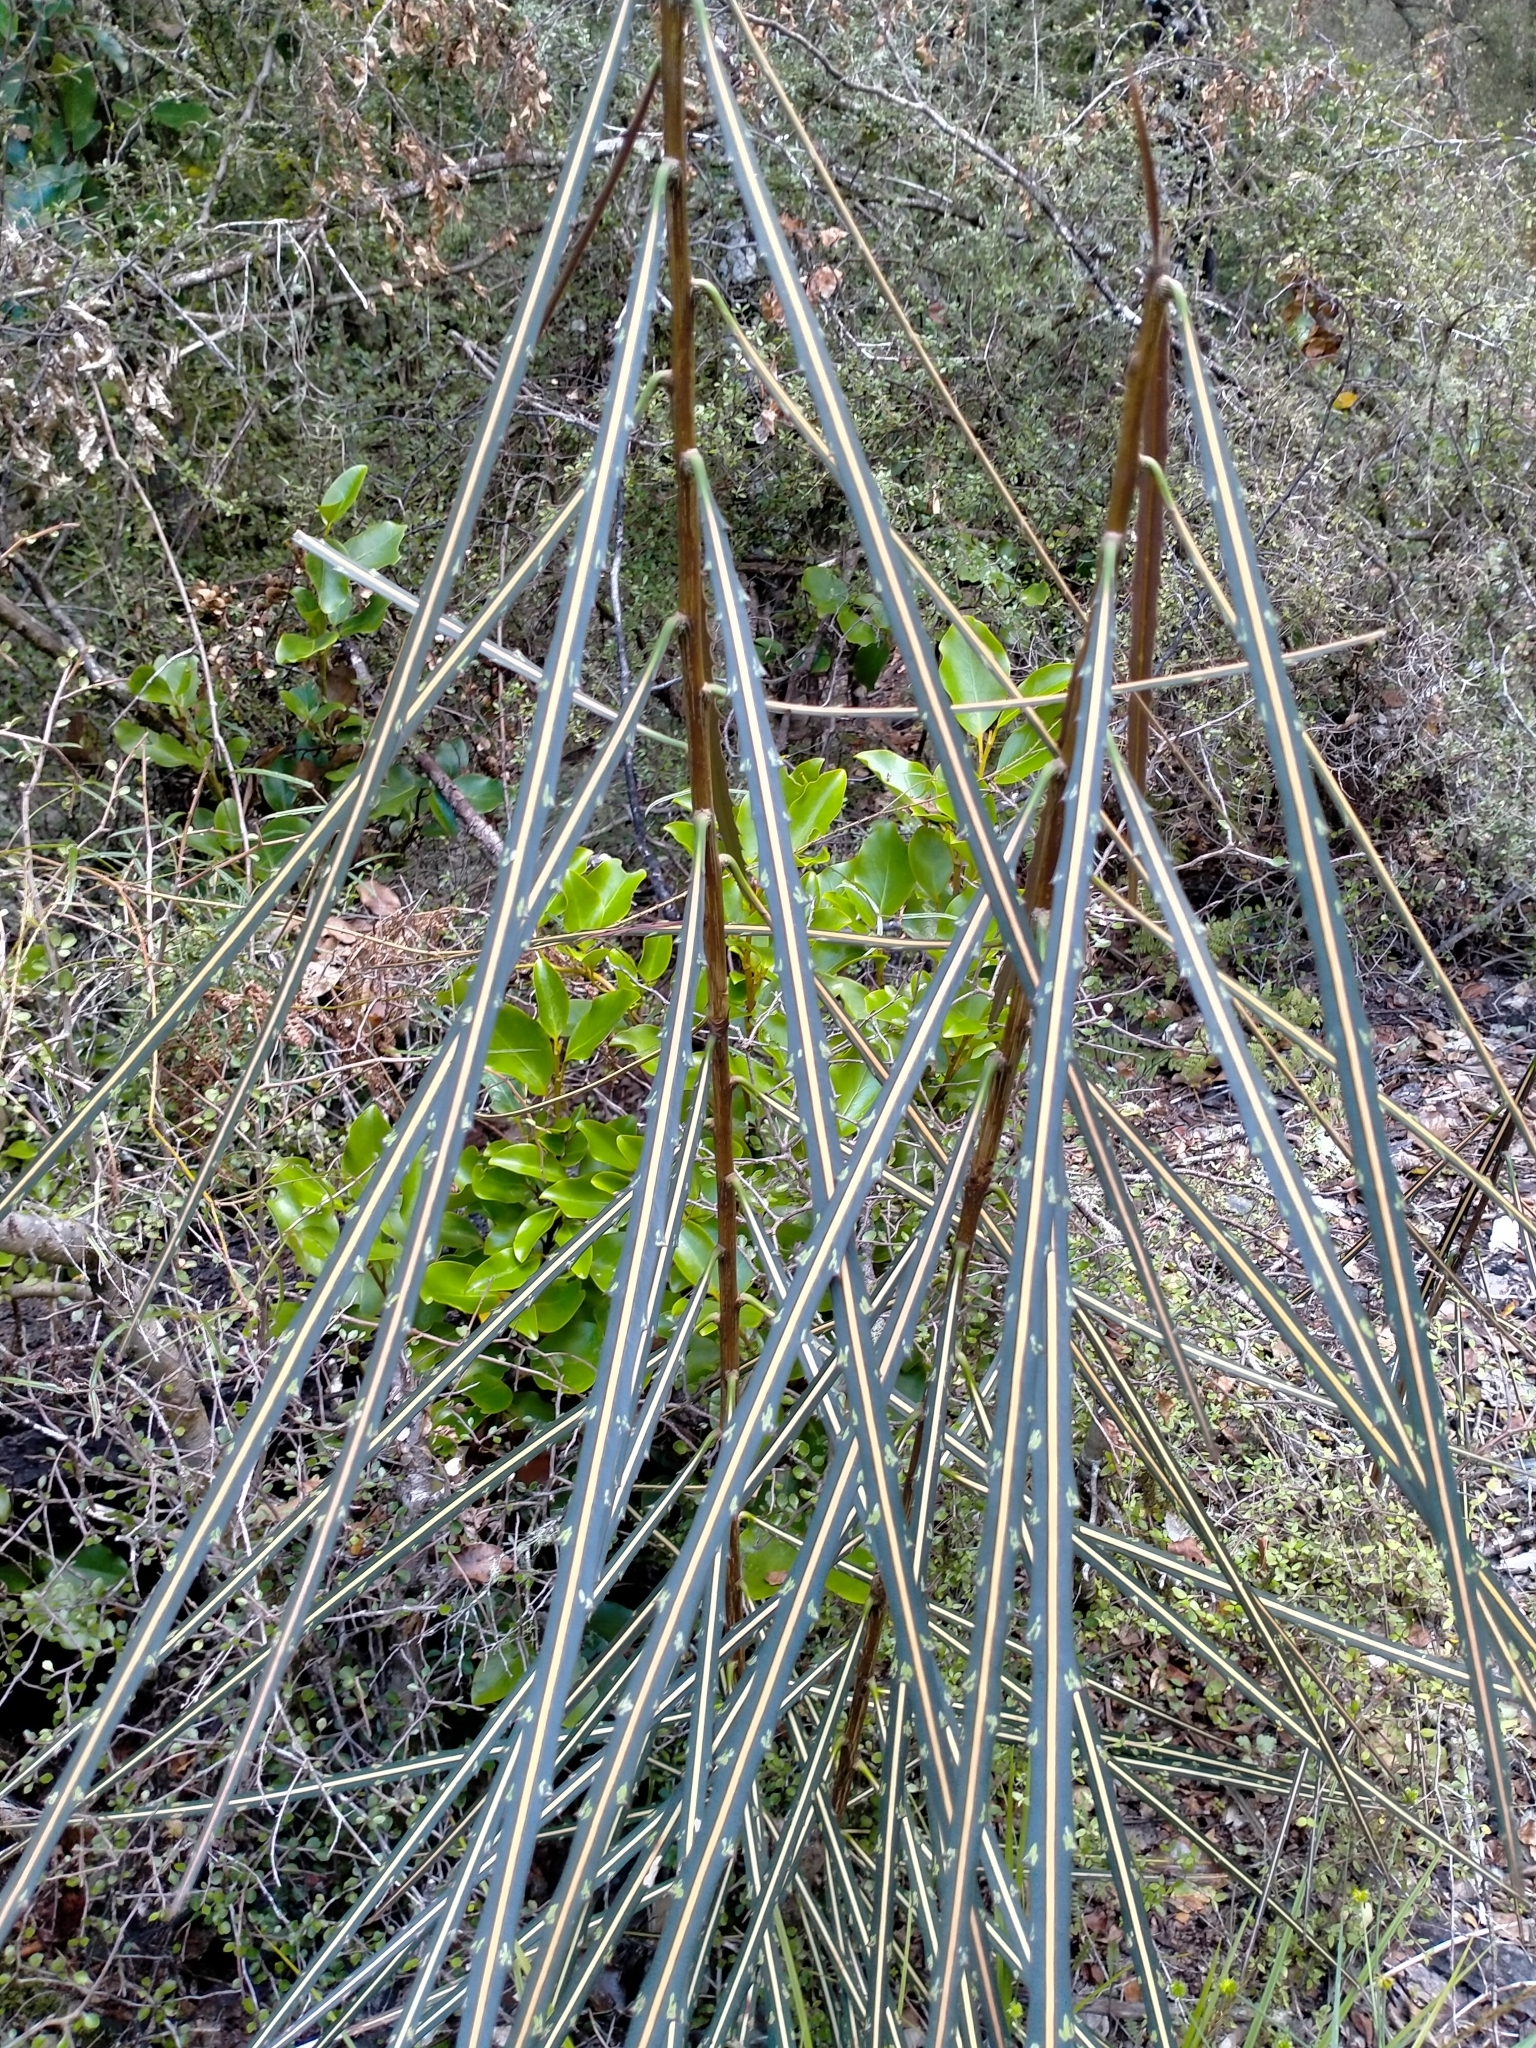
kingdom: Plantae
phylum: Tracheophyta
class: Magnoliopsida
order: Apiales
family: Araliaceae
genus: Pseudopanax
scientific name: Pseudopanax crassifolius
